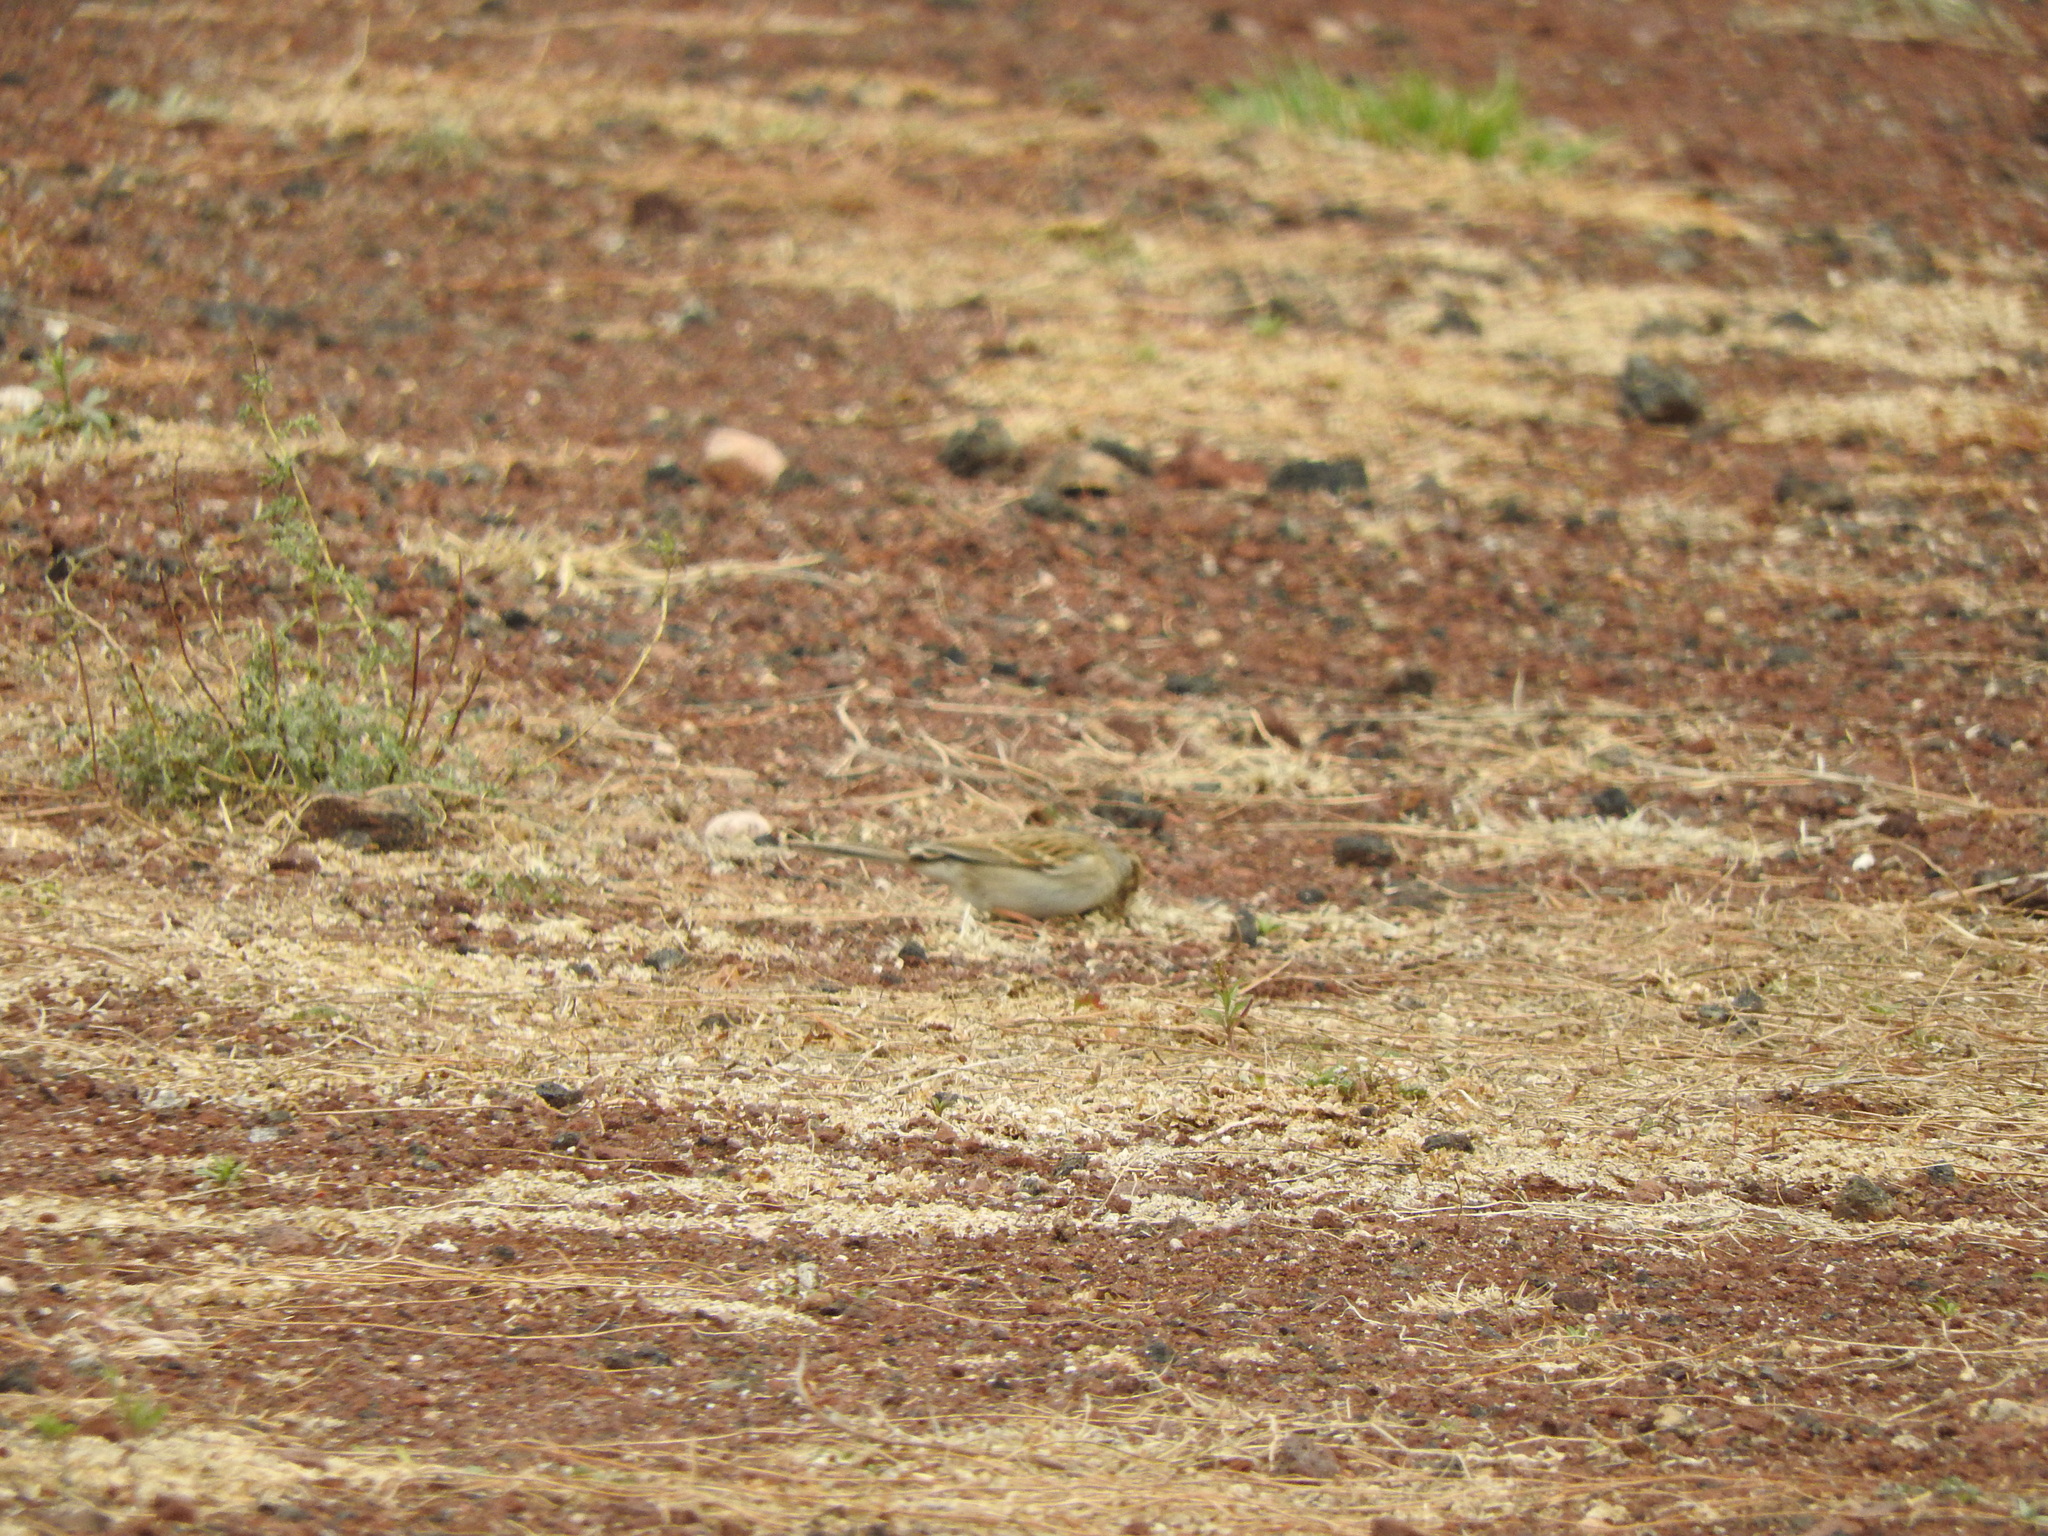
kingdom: Animalia
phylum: Chordata
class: Aves
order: Passeriformes
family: Passerellidae
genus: Spizella
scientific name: Spizella pallida
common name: Clay-colored sparrow
